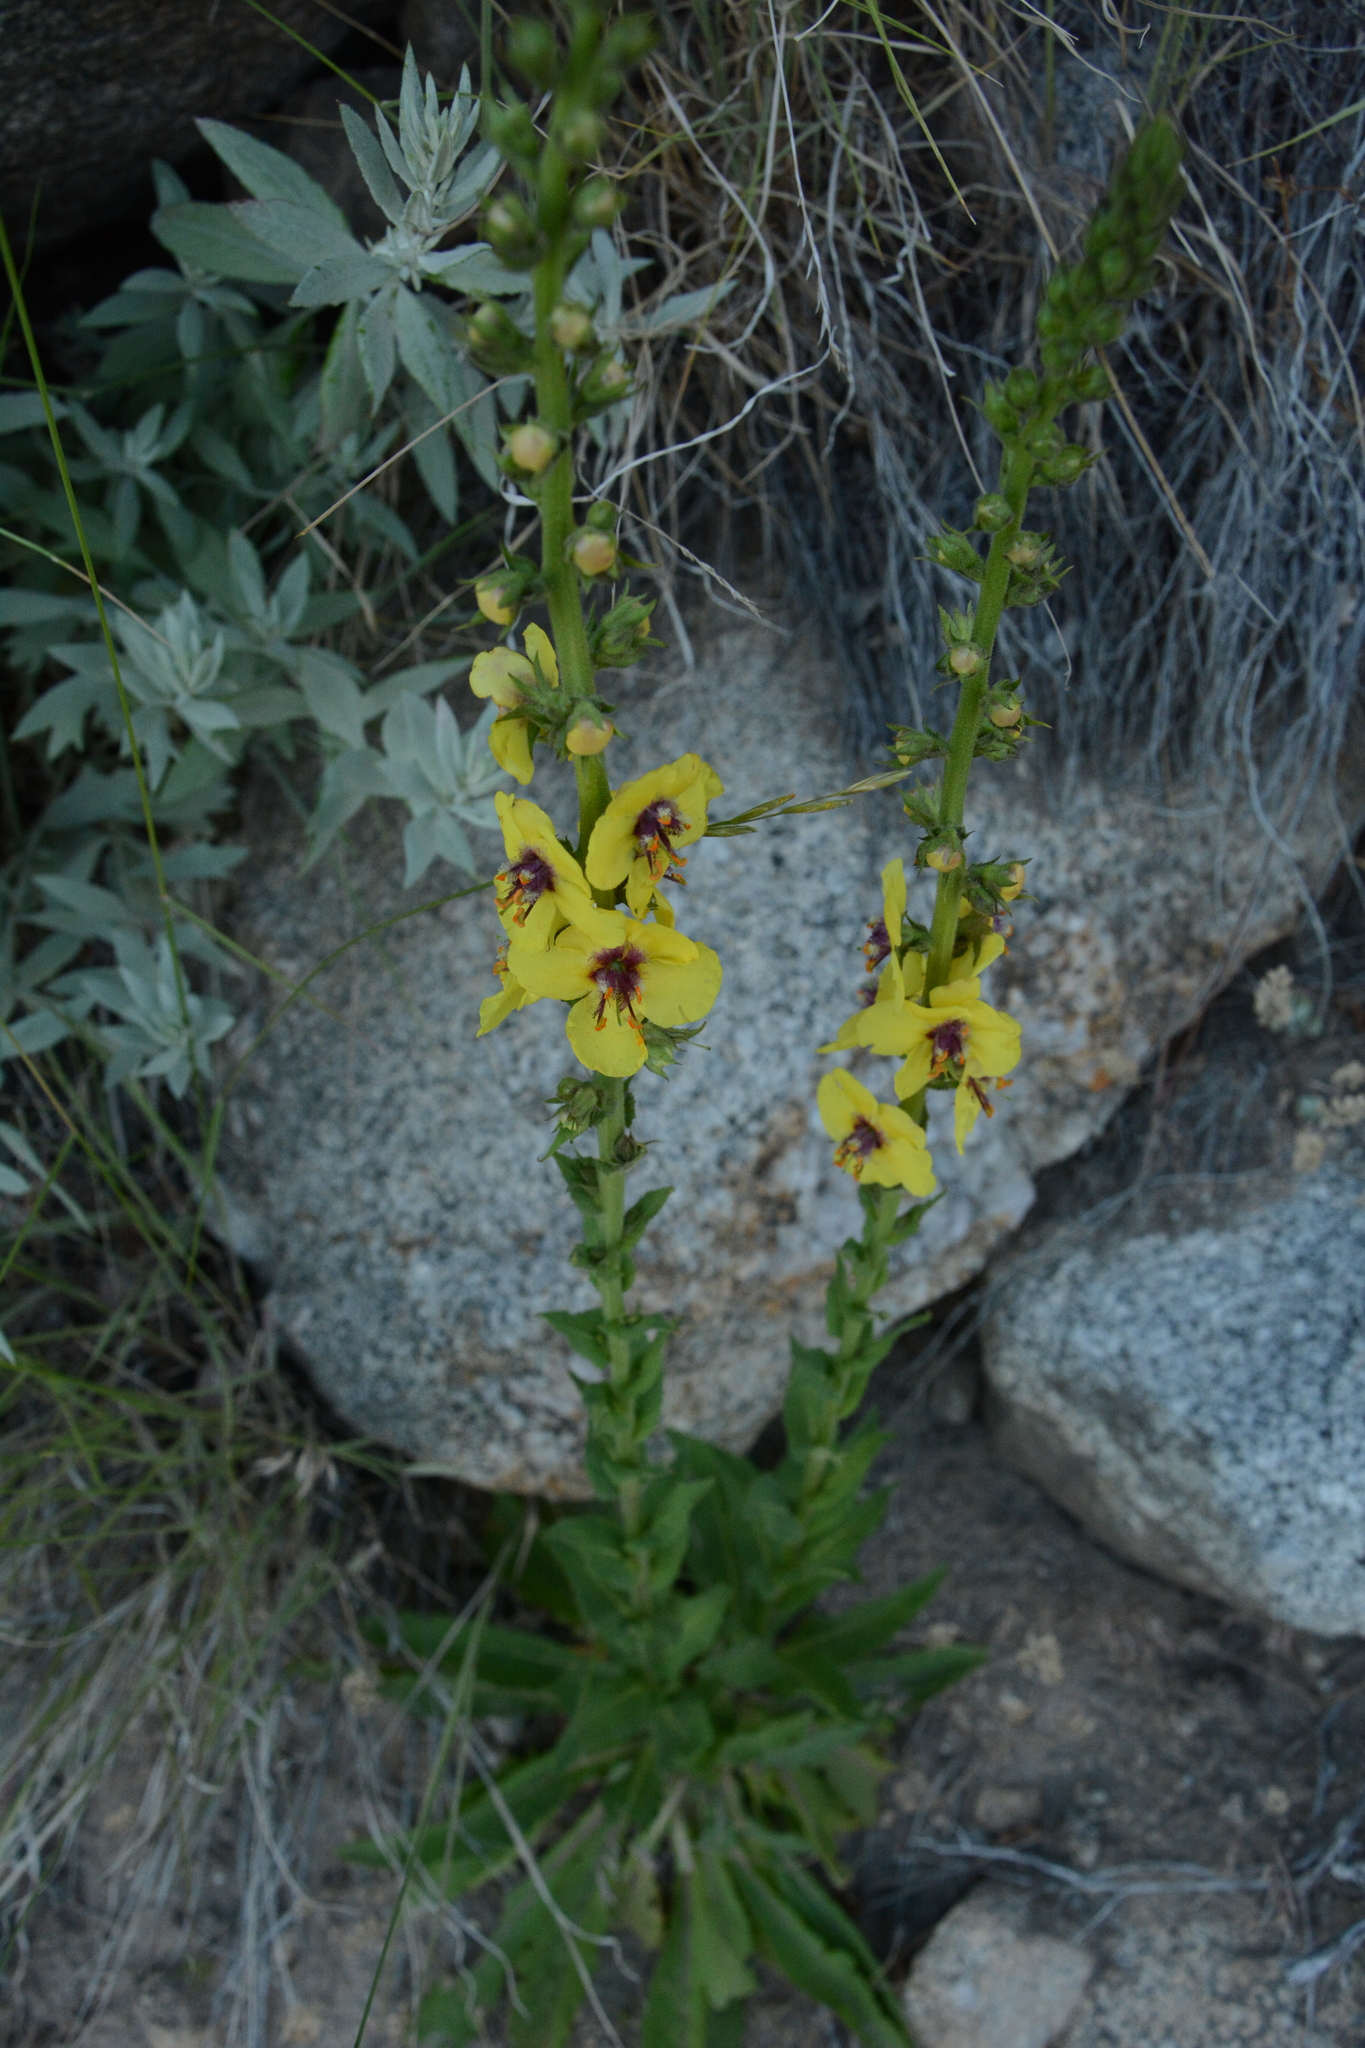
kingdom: Plantae
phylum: Tracheophyta
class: Magnoliopsida
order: Lamiales
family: Scrophulariaceae
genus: Verbascum
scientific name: Verbascum virgatum
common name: Twiggy mullein
